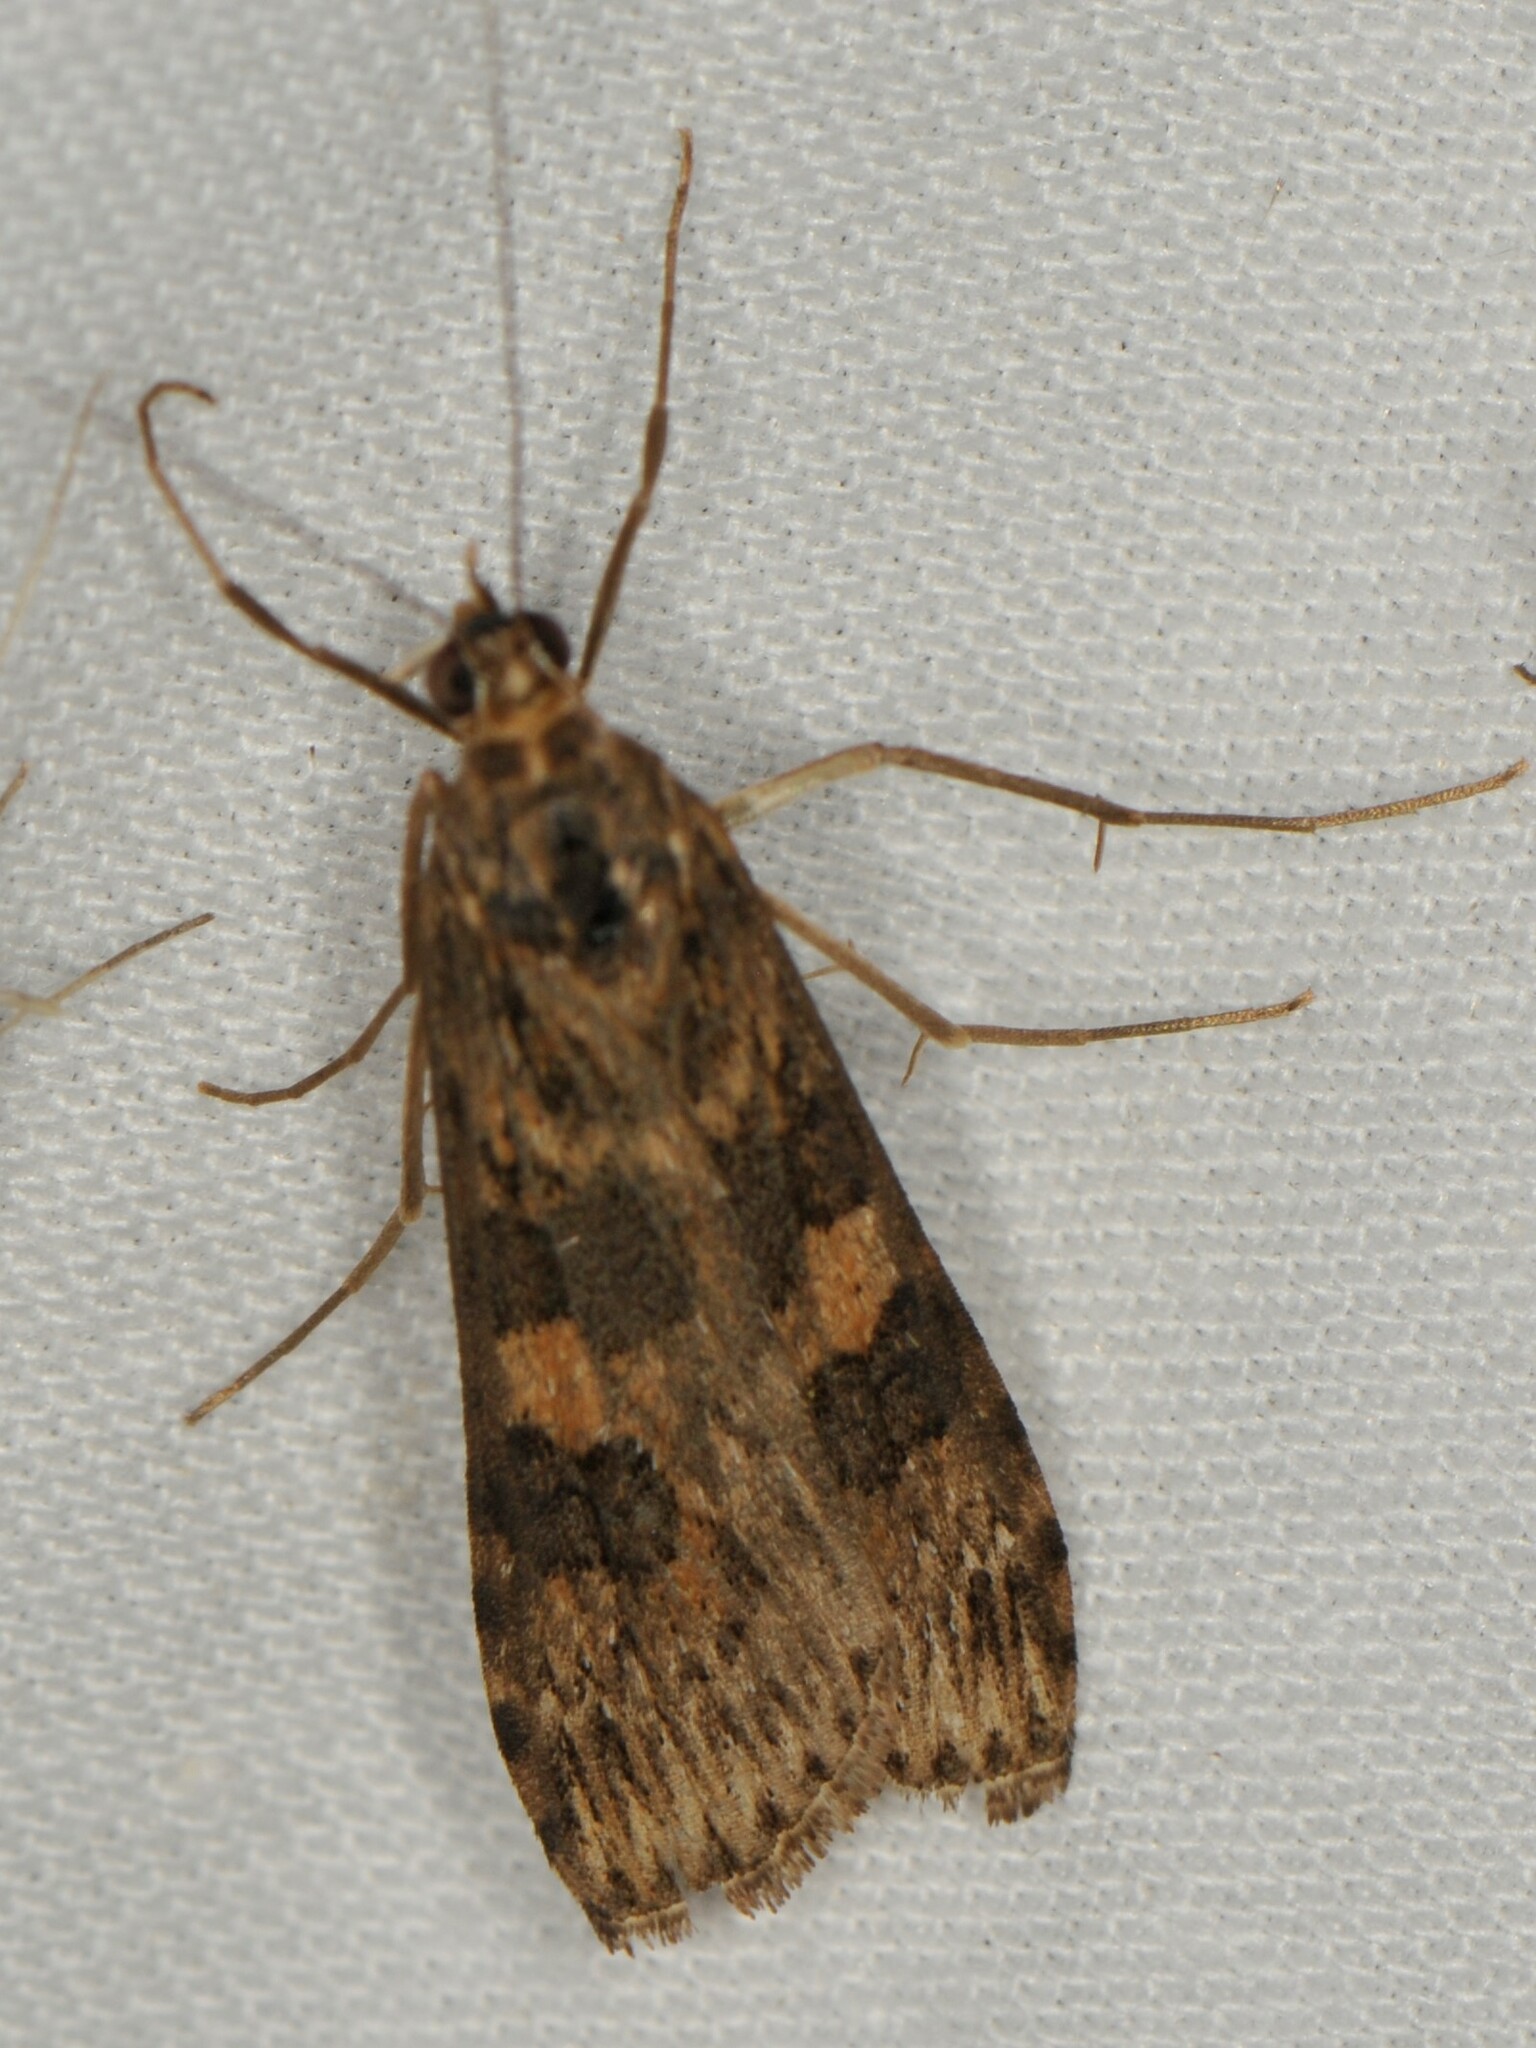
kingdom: Animalia
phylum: Arthropoda
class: Insecta
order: Lepidoptera
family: Crambidae
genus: Nomophila
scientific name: Nomophila nearctica
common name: American rush veneer
